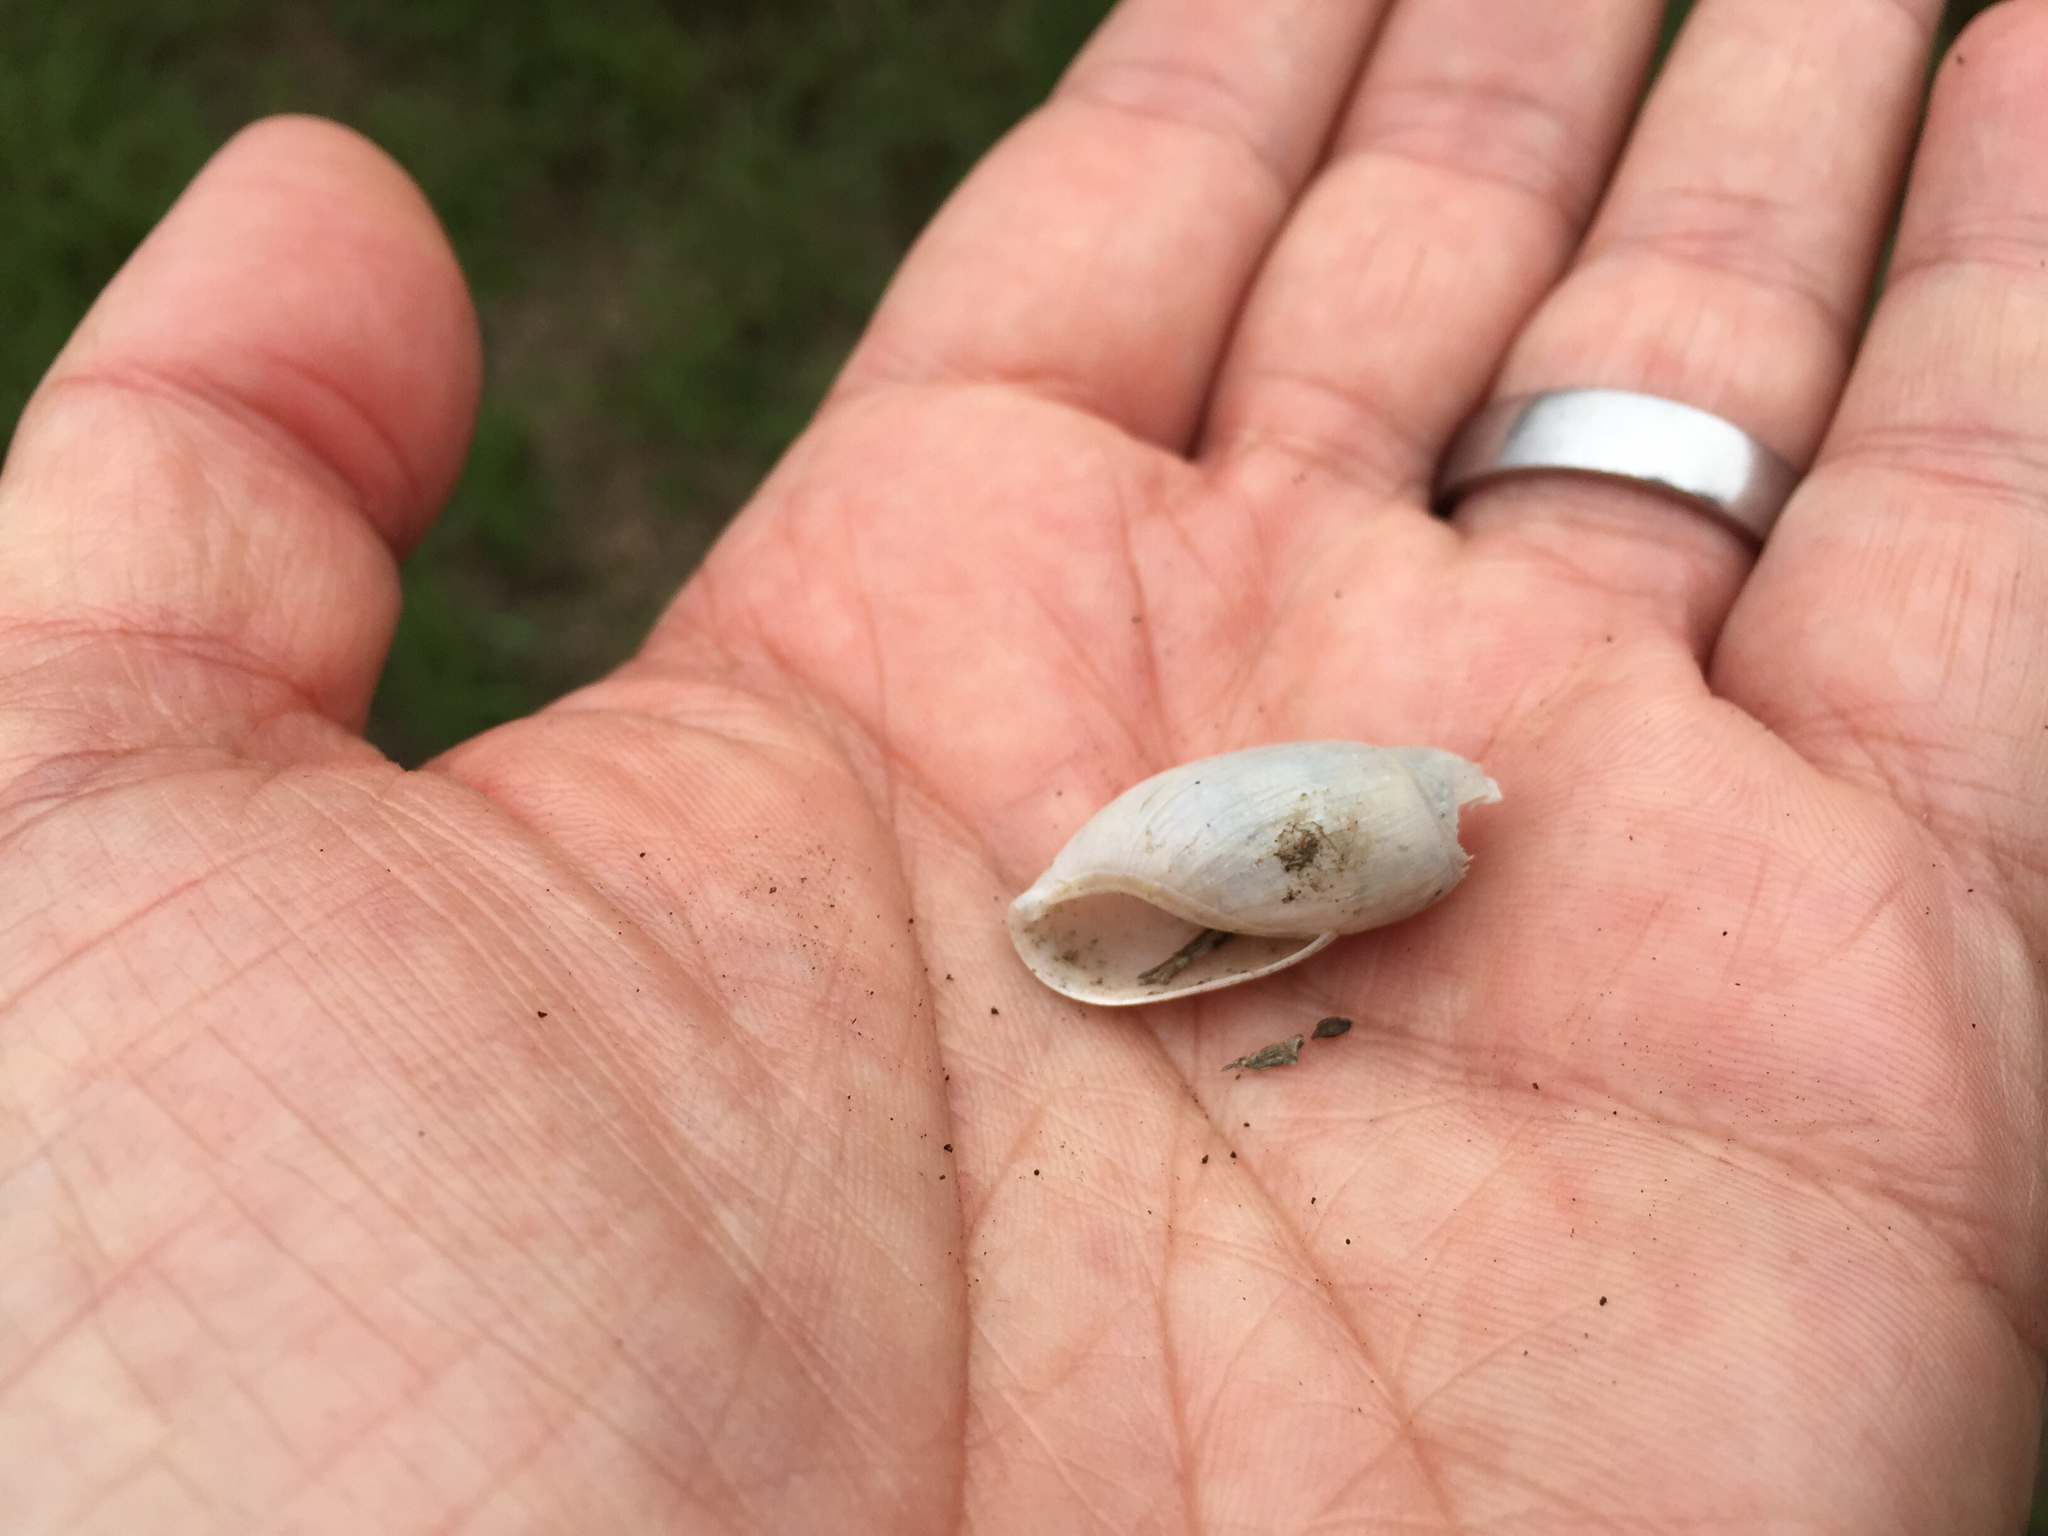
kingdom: Animalia
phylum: Mollusca
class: Gastropoda
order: Stylommatophora
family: Spiraxidae
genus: Euglandina
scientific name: Euglandina texasiana
